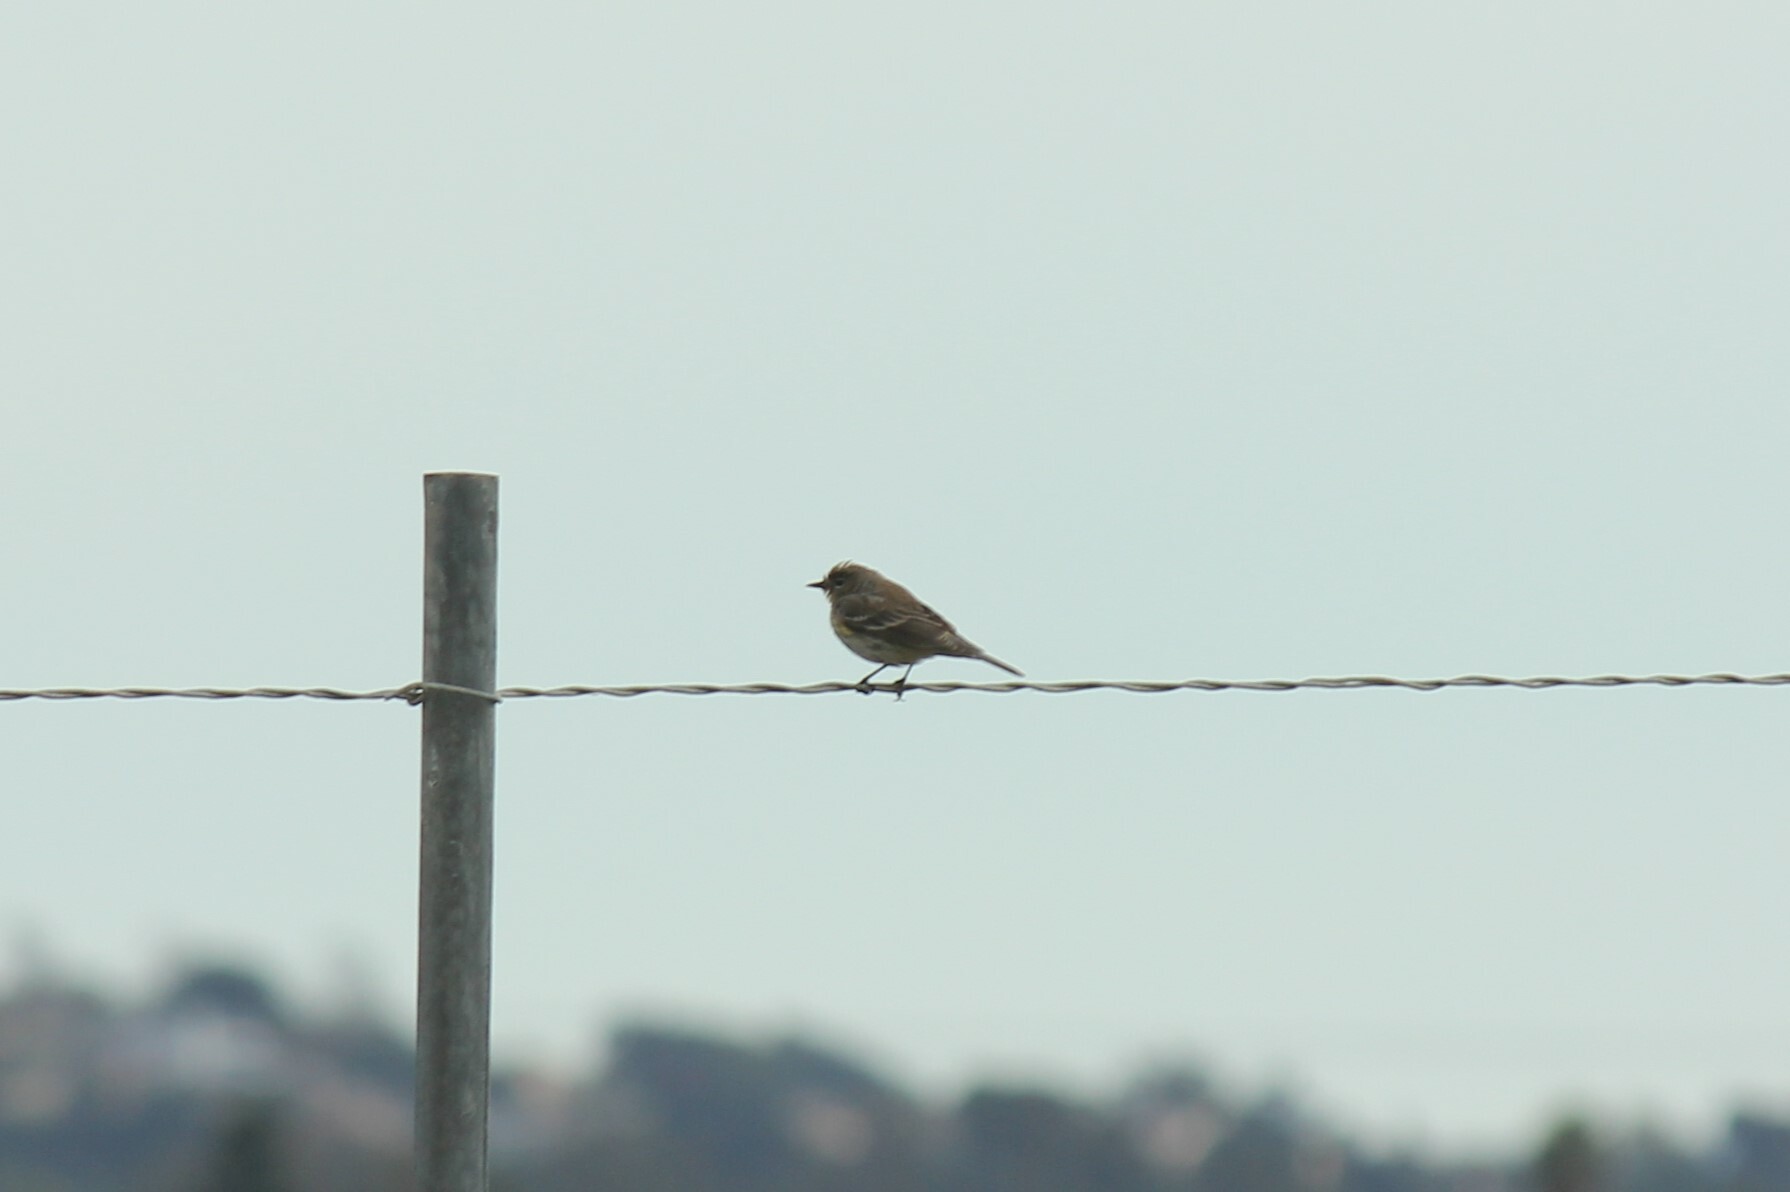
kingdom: Animalia
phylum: Chordata
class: Aves
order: Passeriformes
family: Parulidae
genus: Setophaga
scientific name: Setophaga coronata
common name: Myrtle warbler
